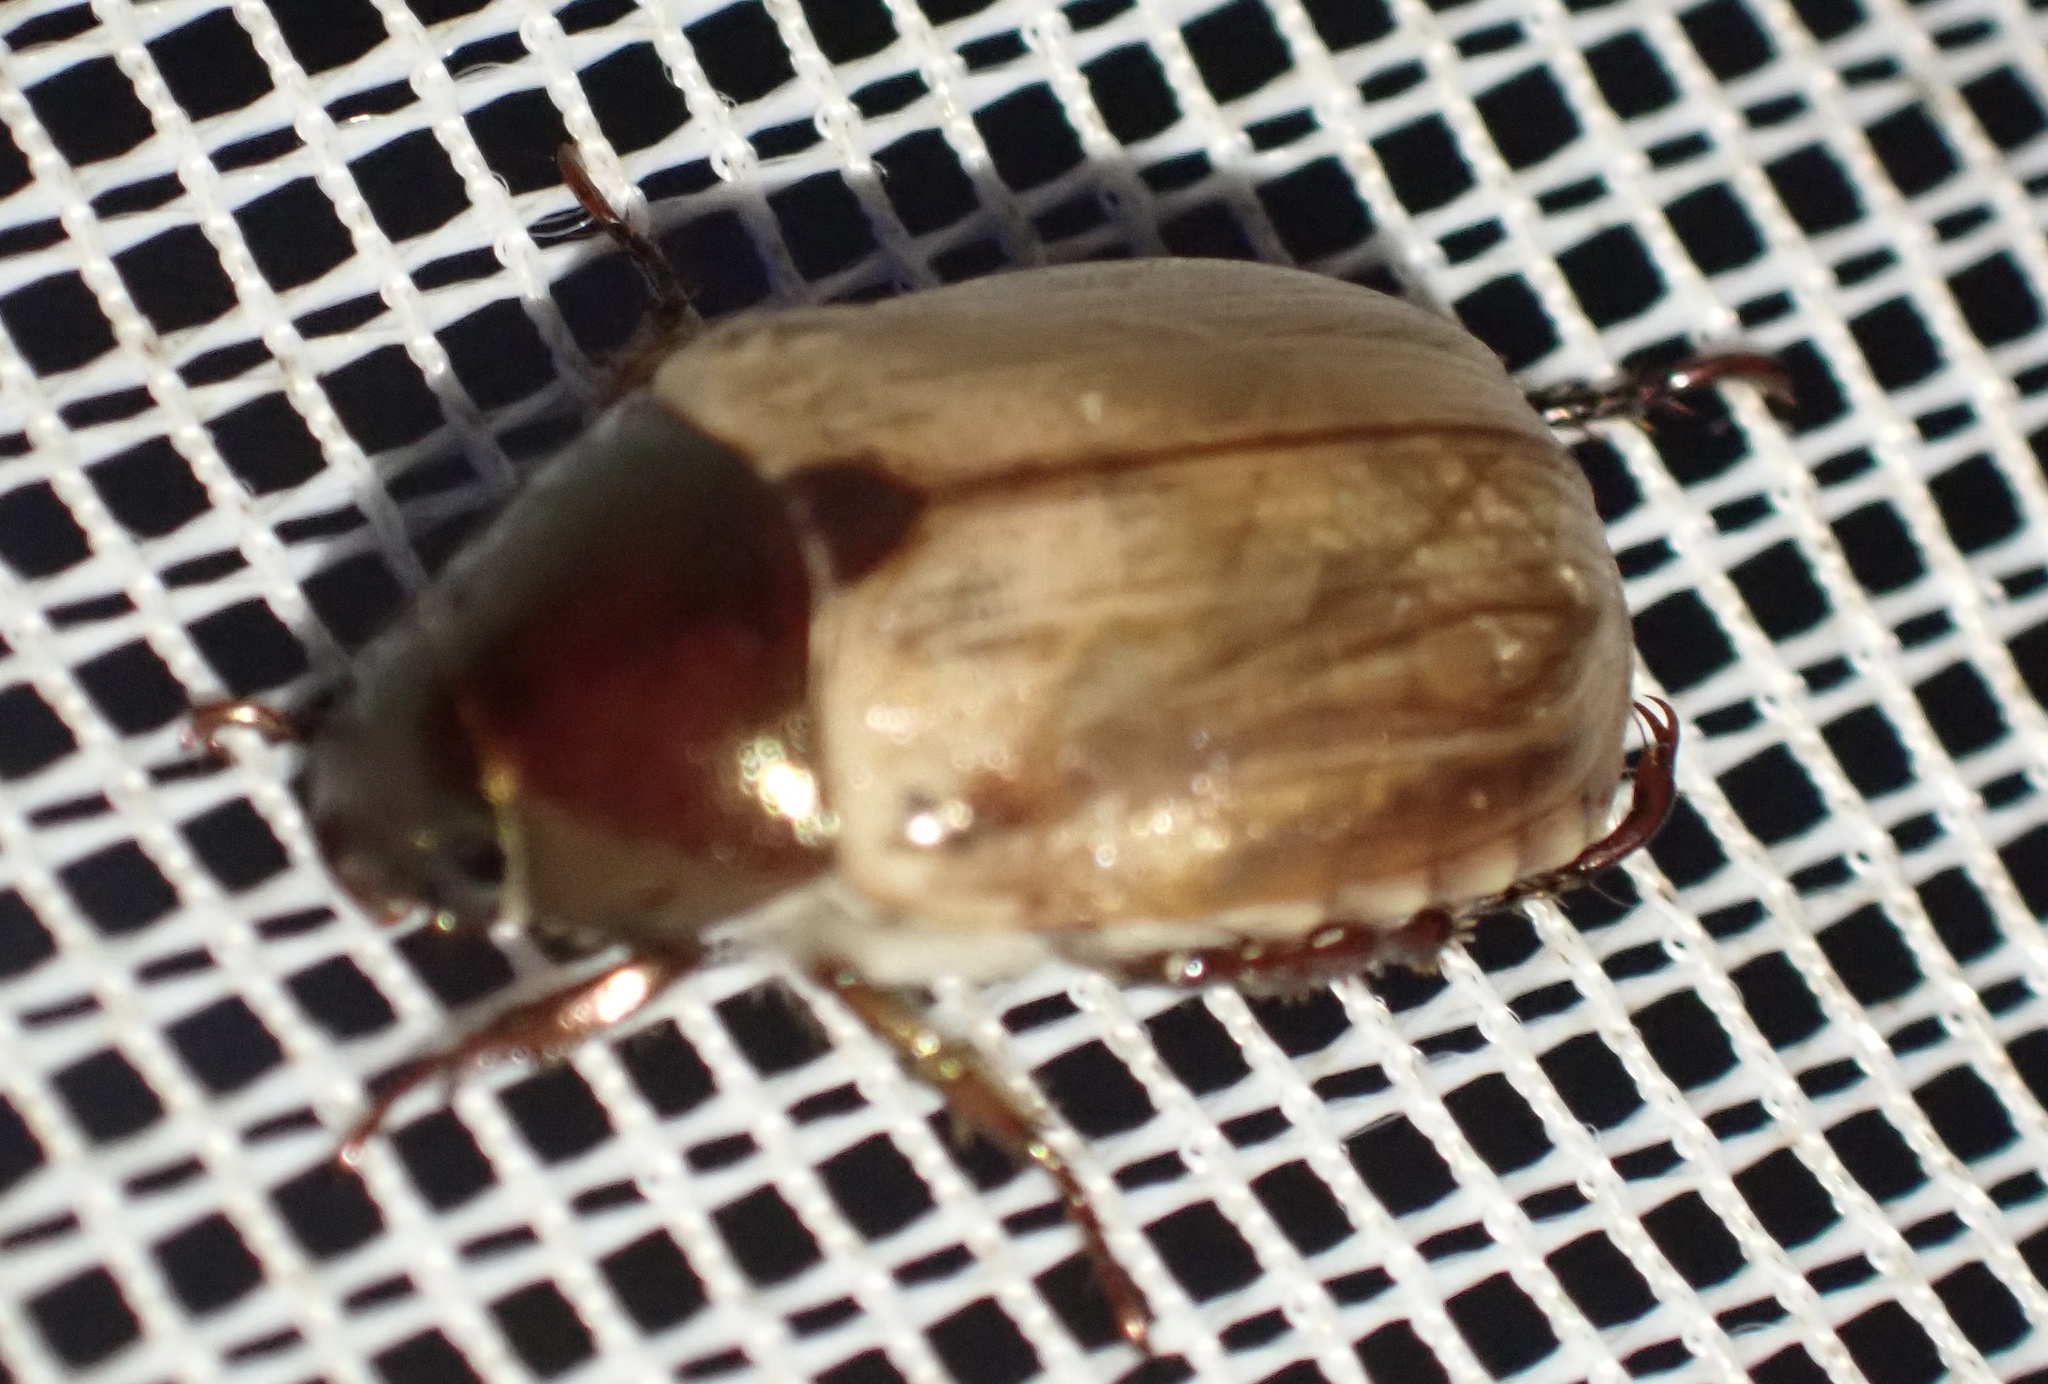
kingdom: Animalia
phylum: Arthropoda
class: Insecta
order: Coleoptera
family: Scarabaeidae
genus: Anomala
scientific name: Anomala brachycaula
